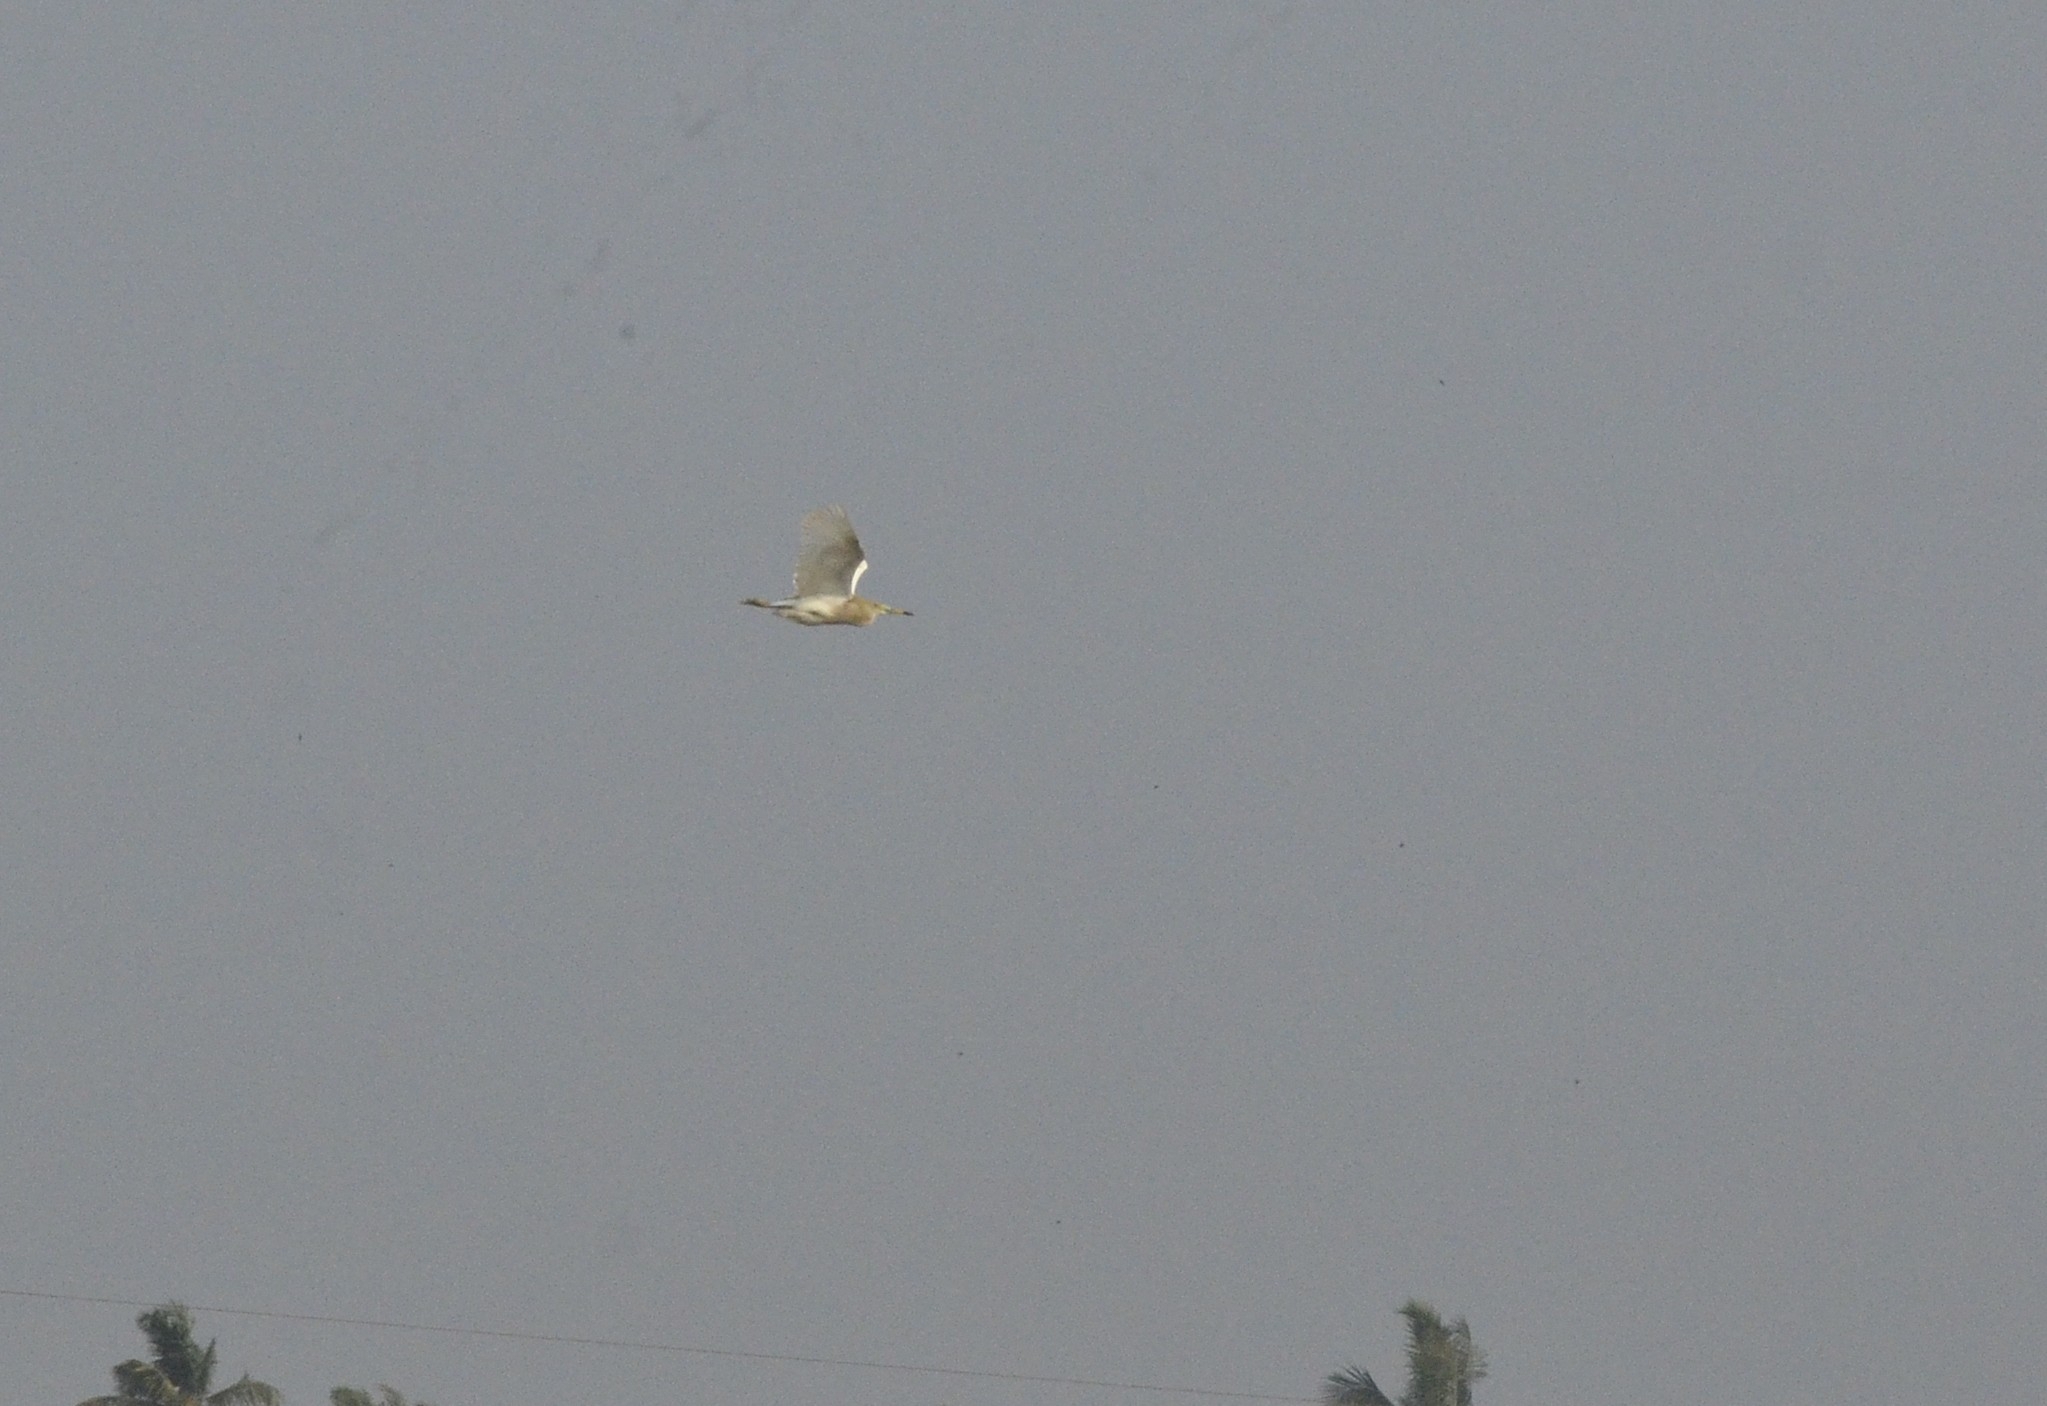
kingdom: Animalia
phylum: Chordata
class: Aves
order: Pelecaniformes
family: Ardeidae
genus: Ardeola
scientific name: Ardeola grayii
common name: Indian pond heron
